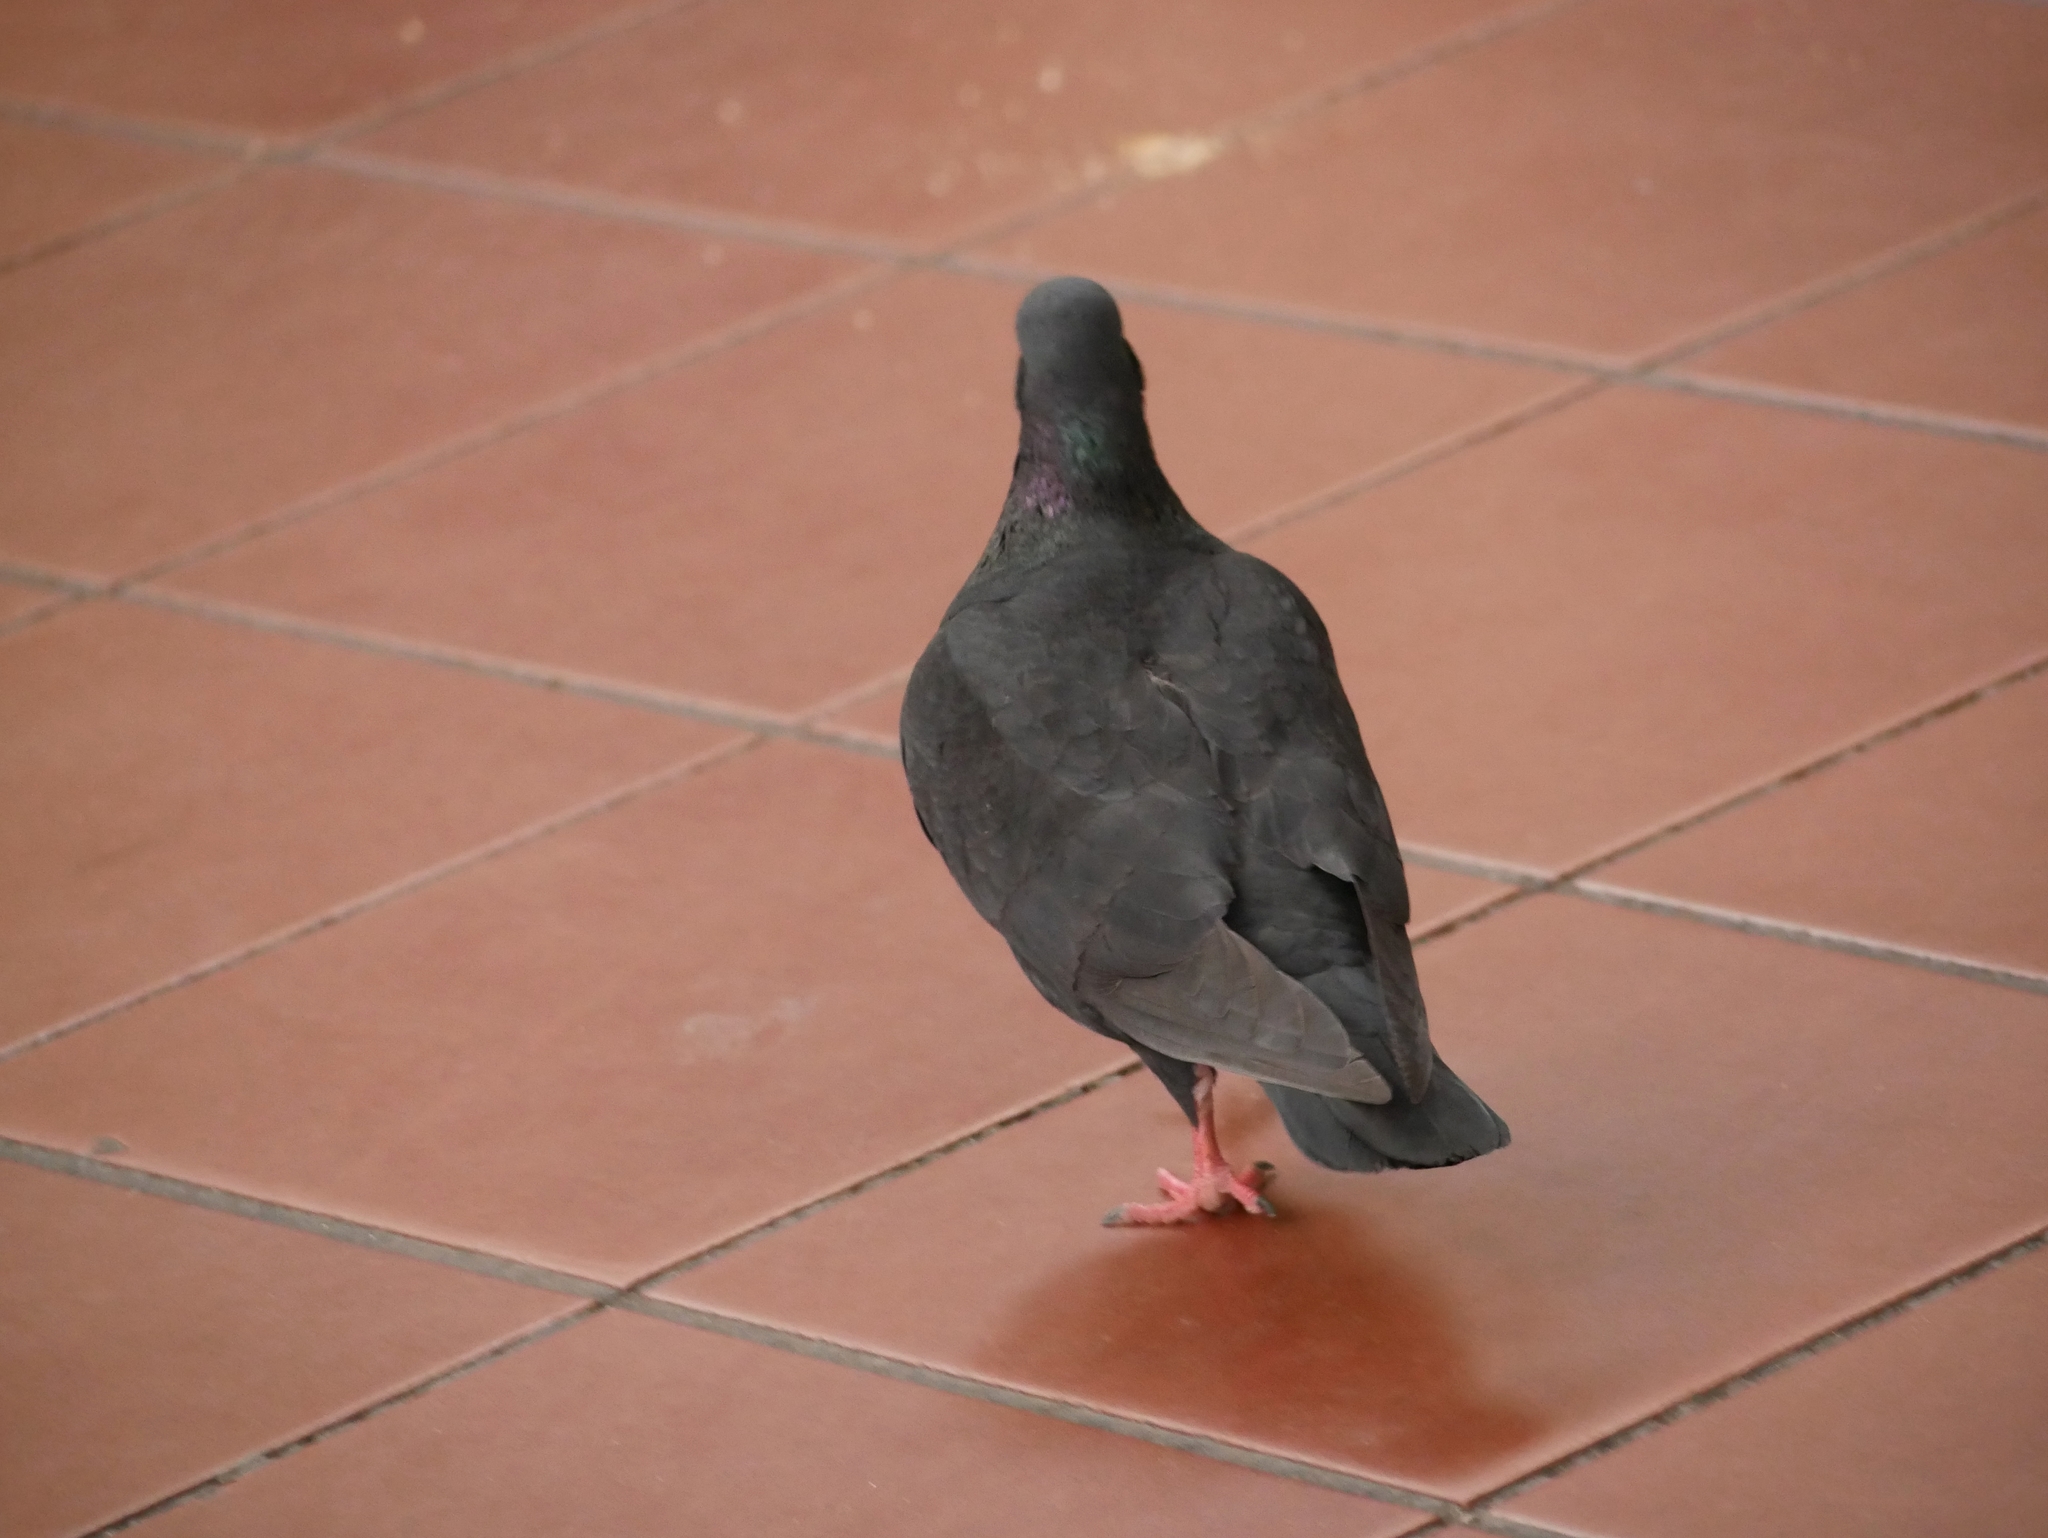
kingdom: Animalia
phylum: Chordata
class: Aves
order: Columbiformes
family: Columbidae
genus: Columba
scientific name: Columba livia
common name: Rock pigeon
